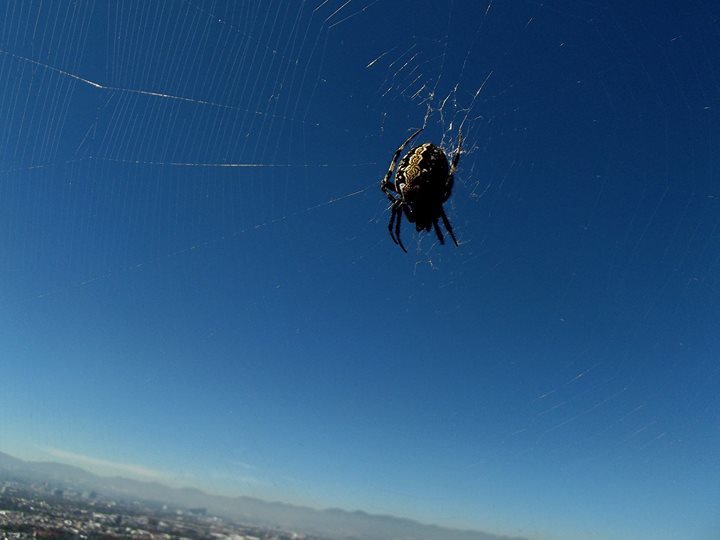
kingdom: Animalia
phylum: Arthropoda
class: Arachnida
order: Araneae
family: Araneidae
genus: Neoscona
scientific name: Neoscona oaxacensis
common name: Orb weavers
